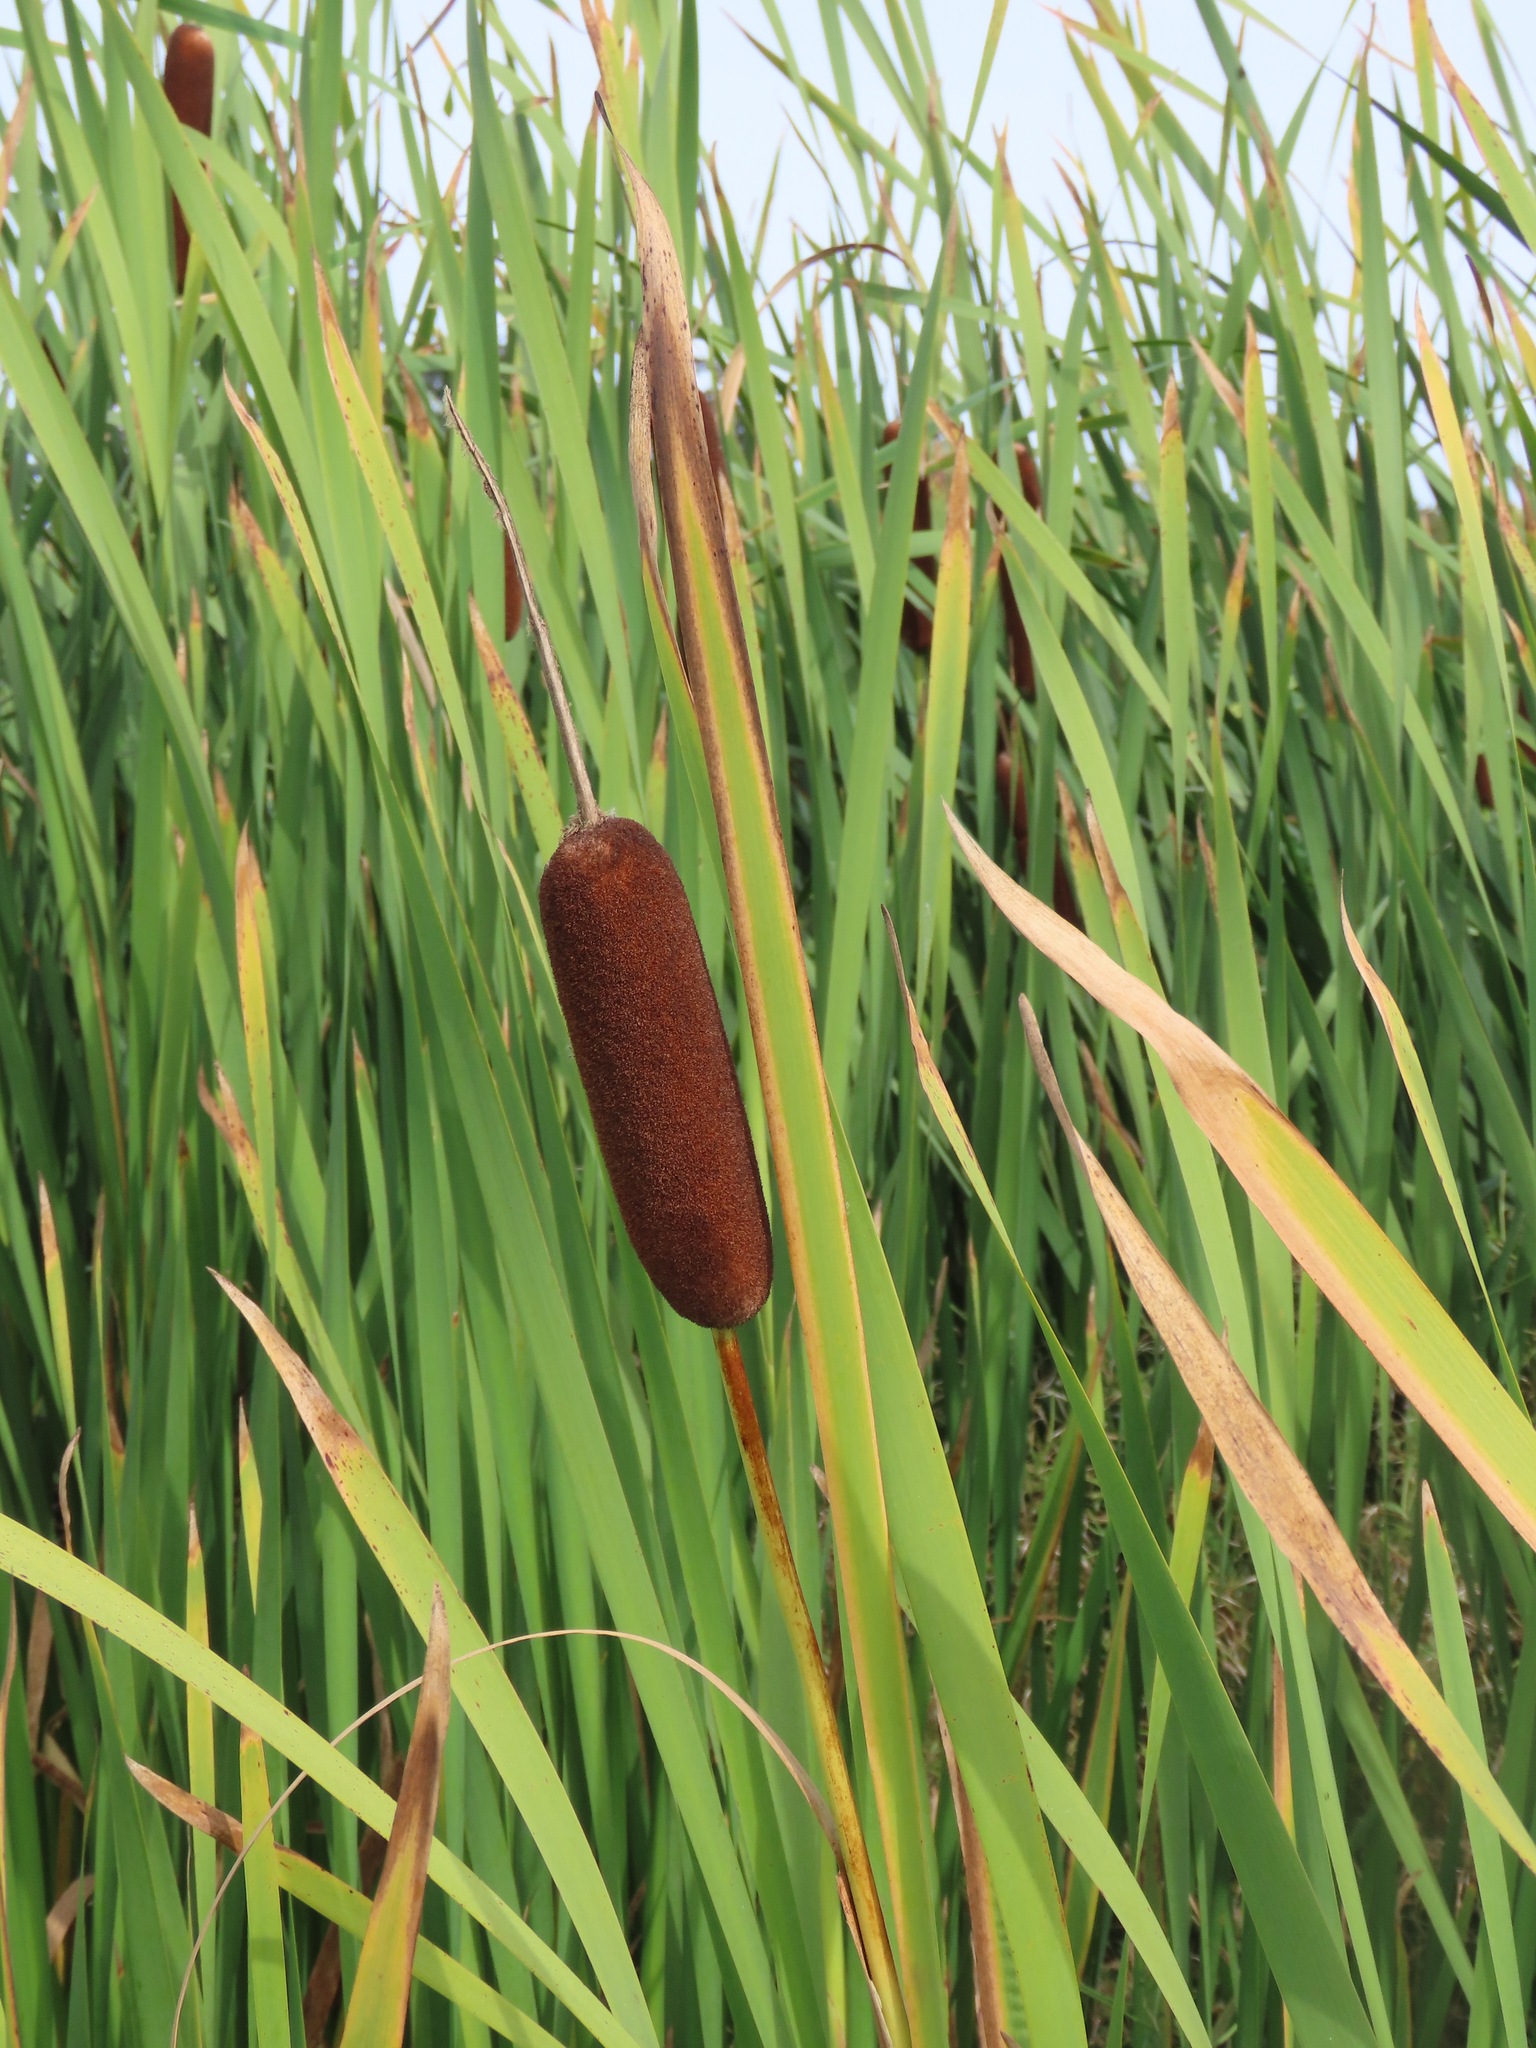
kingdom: Plantae
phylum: Tracheophyta
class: Liliopsida
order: Poales
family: Typhaceae
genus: Typha
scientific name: Typha latifolia
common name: Broadleaf cattail
